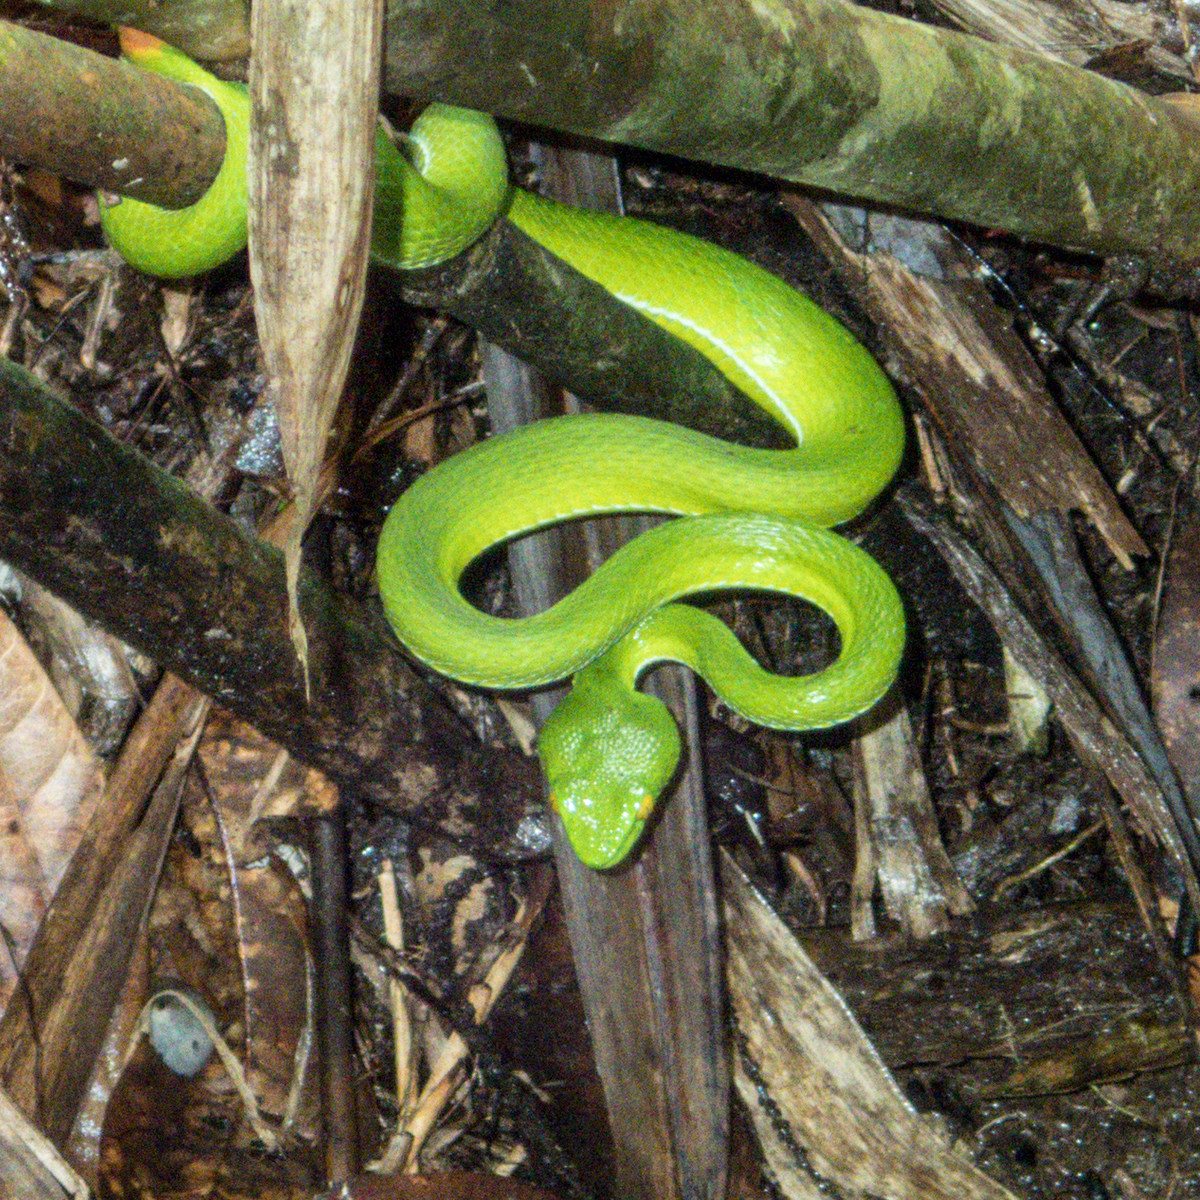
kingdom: Animalia
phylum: Chordata
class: Squamata
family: Viperidae
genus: Trimeresurus
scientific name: Trimeresurus cardamomensis
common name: Cardamom mountains green pitviper
